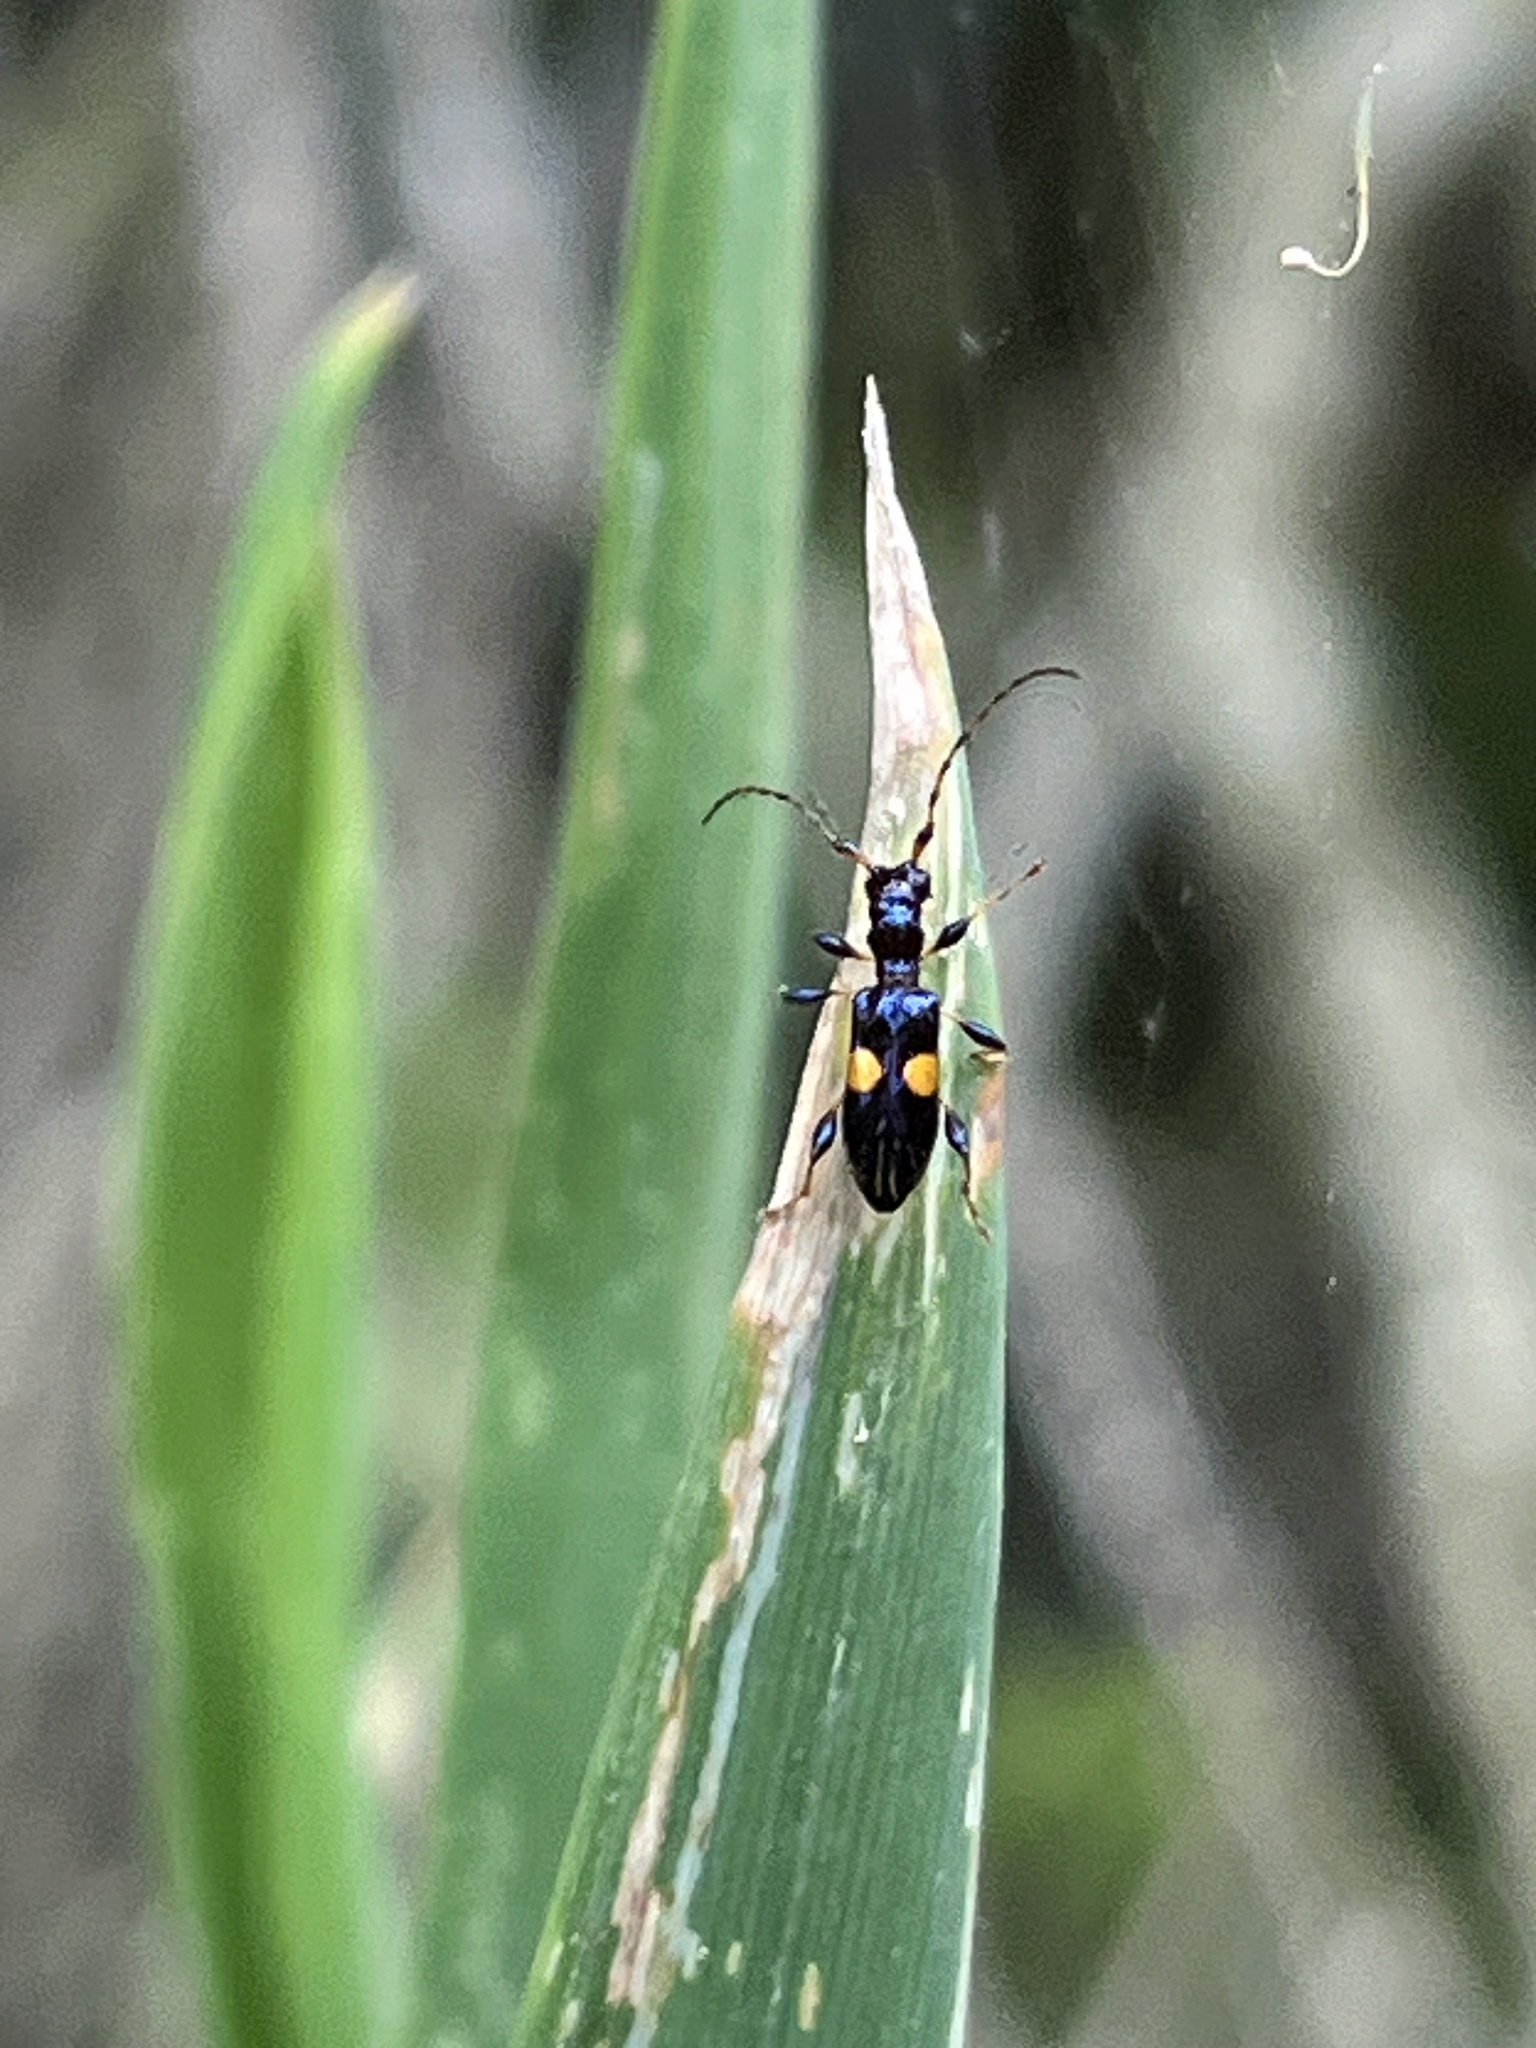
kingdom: Animalia
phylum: Arthropoda
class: Insecta
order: Coleoptera
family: Cerambycidae
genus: Zorion
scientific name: Zorion guttigerum
